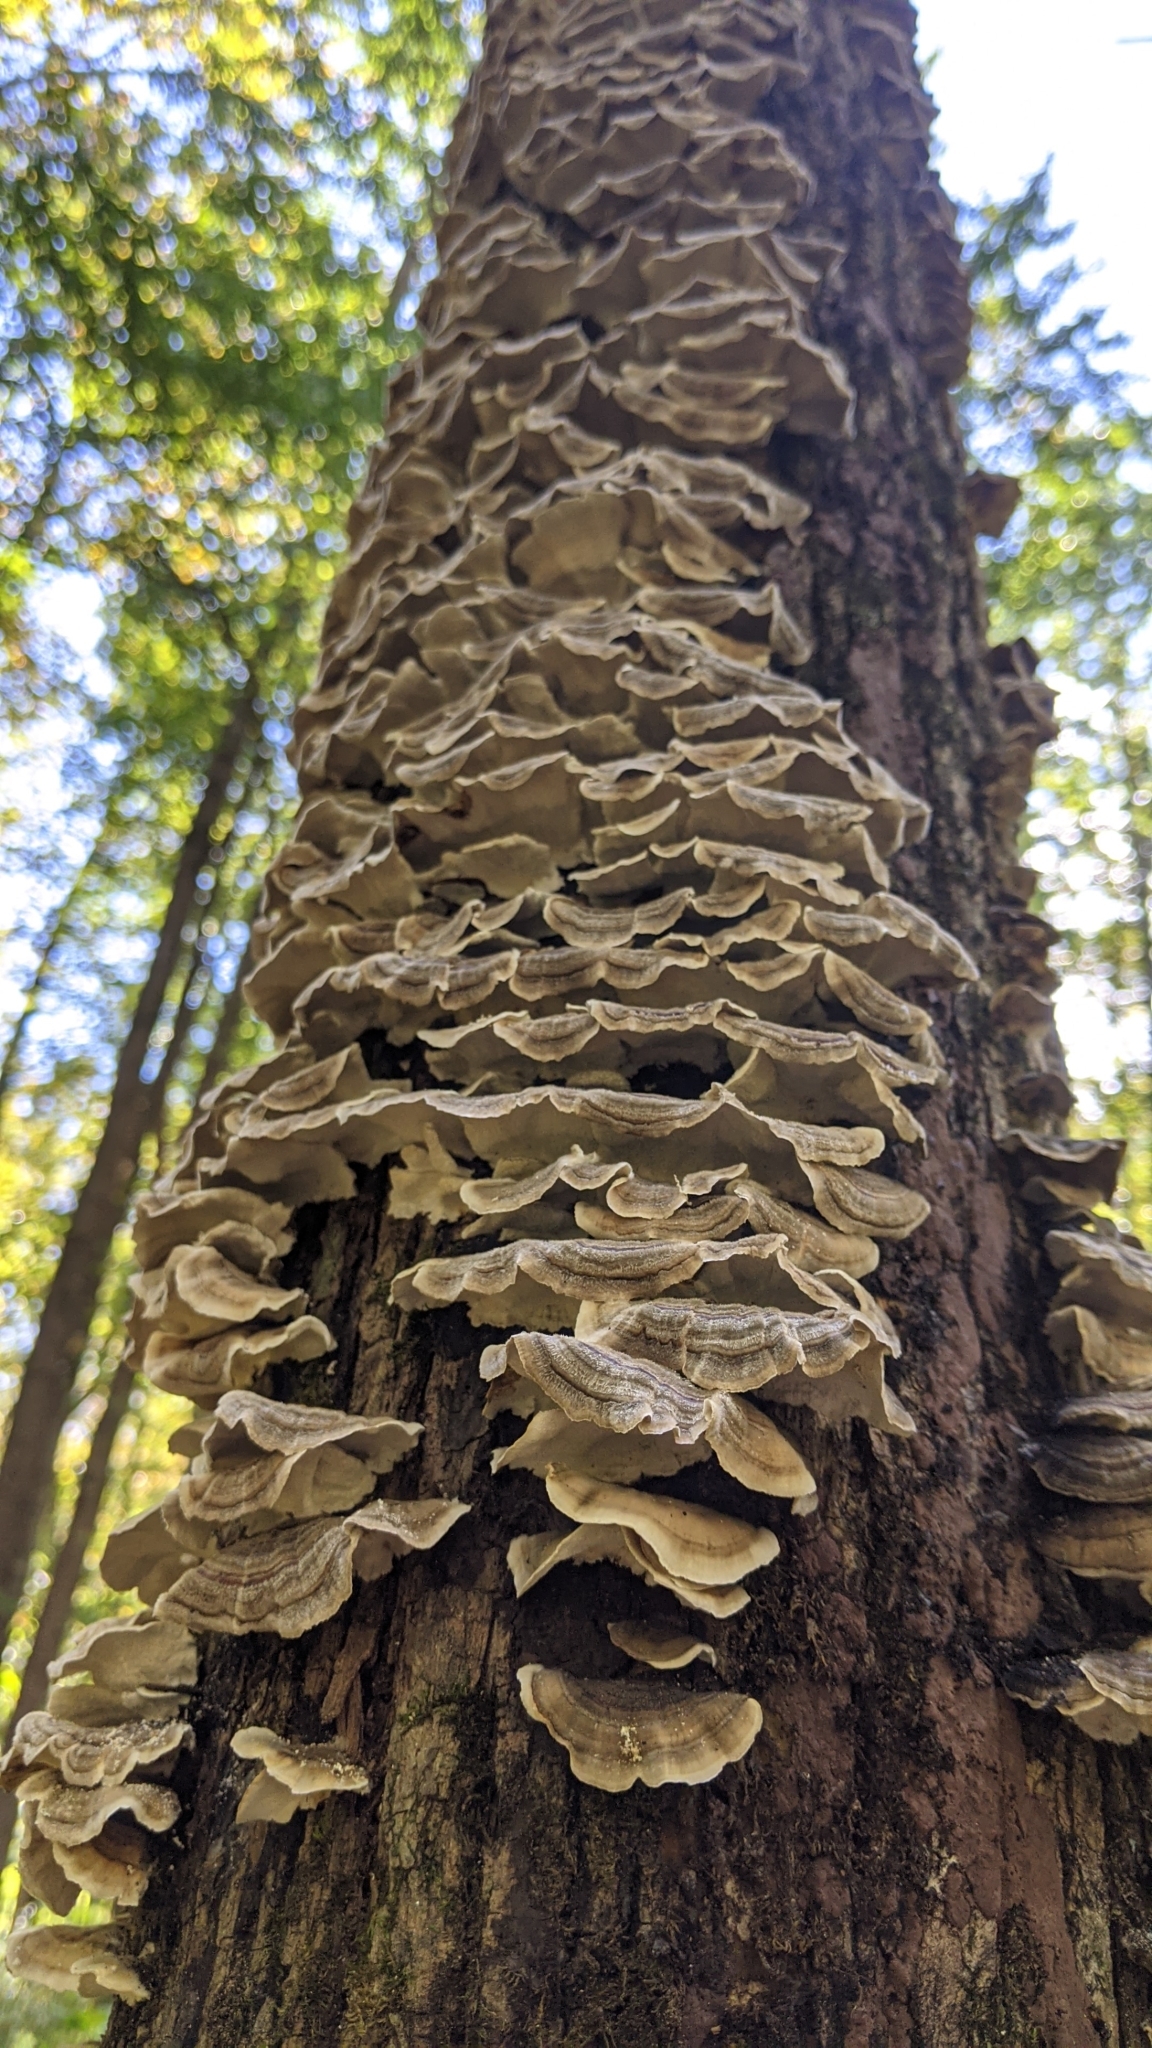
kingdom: Fungi
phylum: Basidiomycota
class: Agaricomycetes
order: Polyporales
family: Polyporaceae
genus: Trametes
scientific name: Trametes versicolor
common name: Turkeytail
